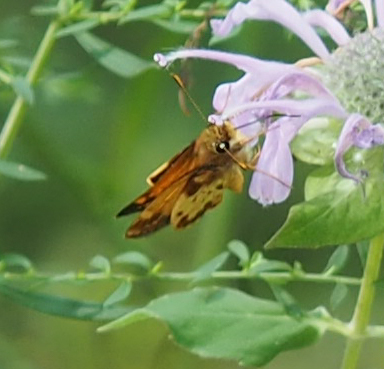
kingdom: Animalia
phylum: Arthropoda
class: Insecta
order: Lepidoptera
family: Hesperiidae
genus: Lon
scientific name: Lon zabulon
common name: Zabulon skipper
